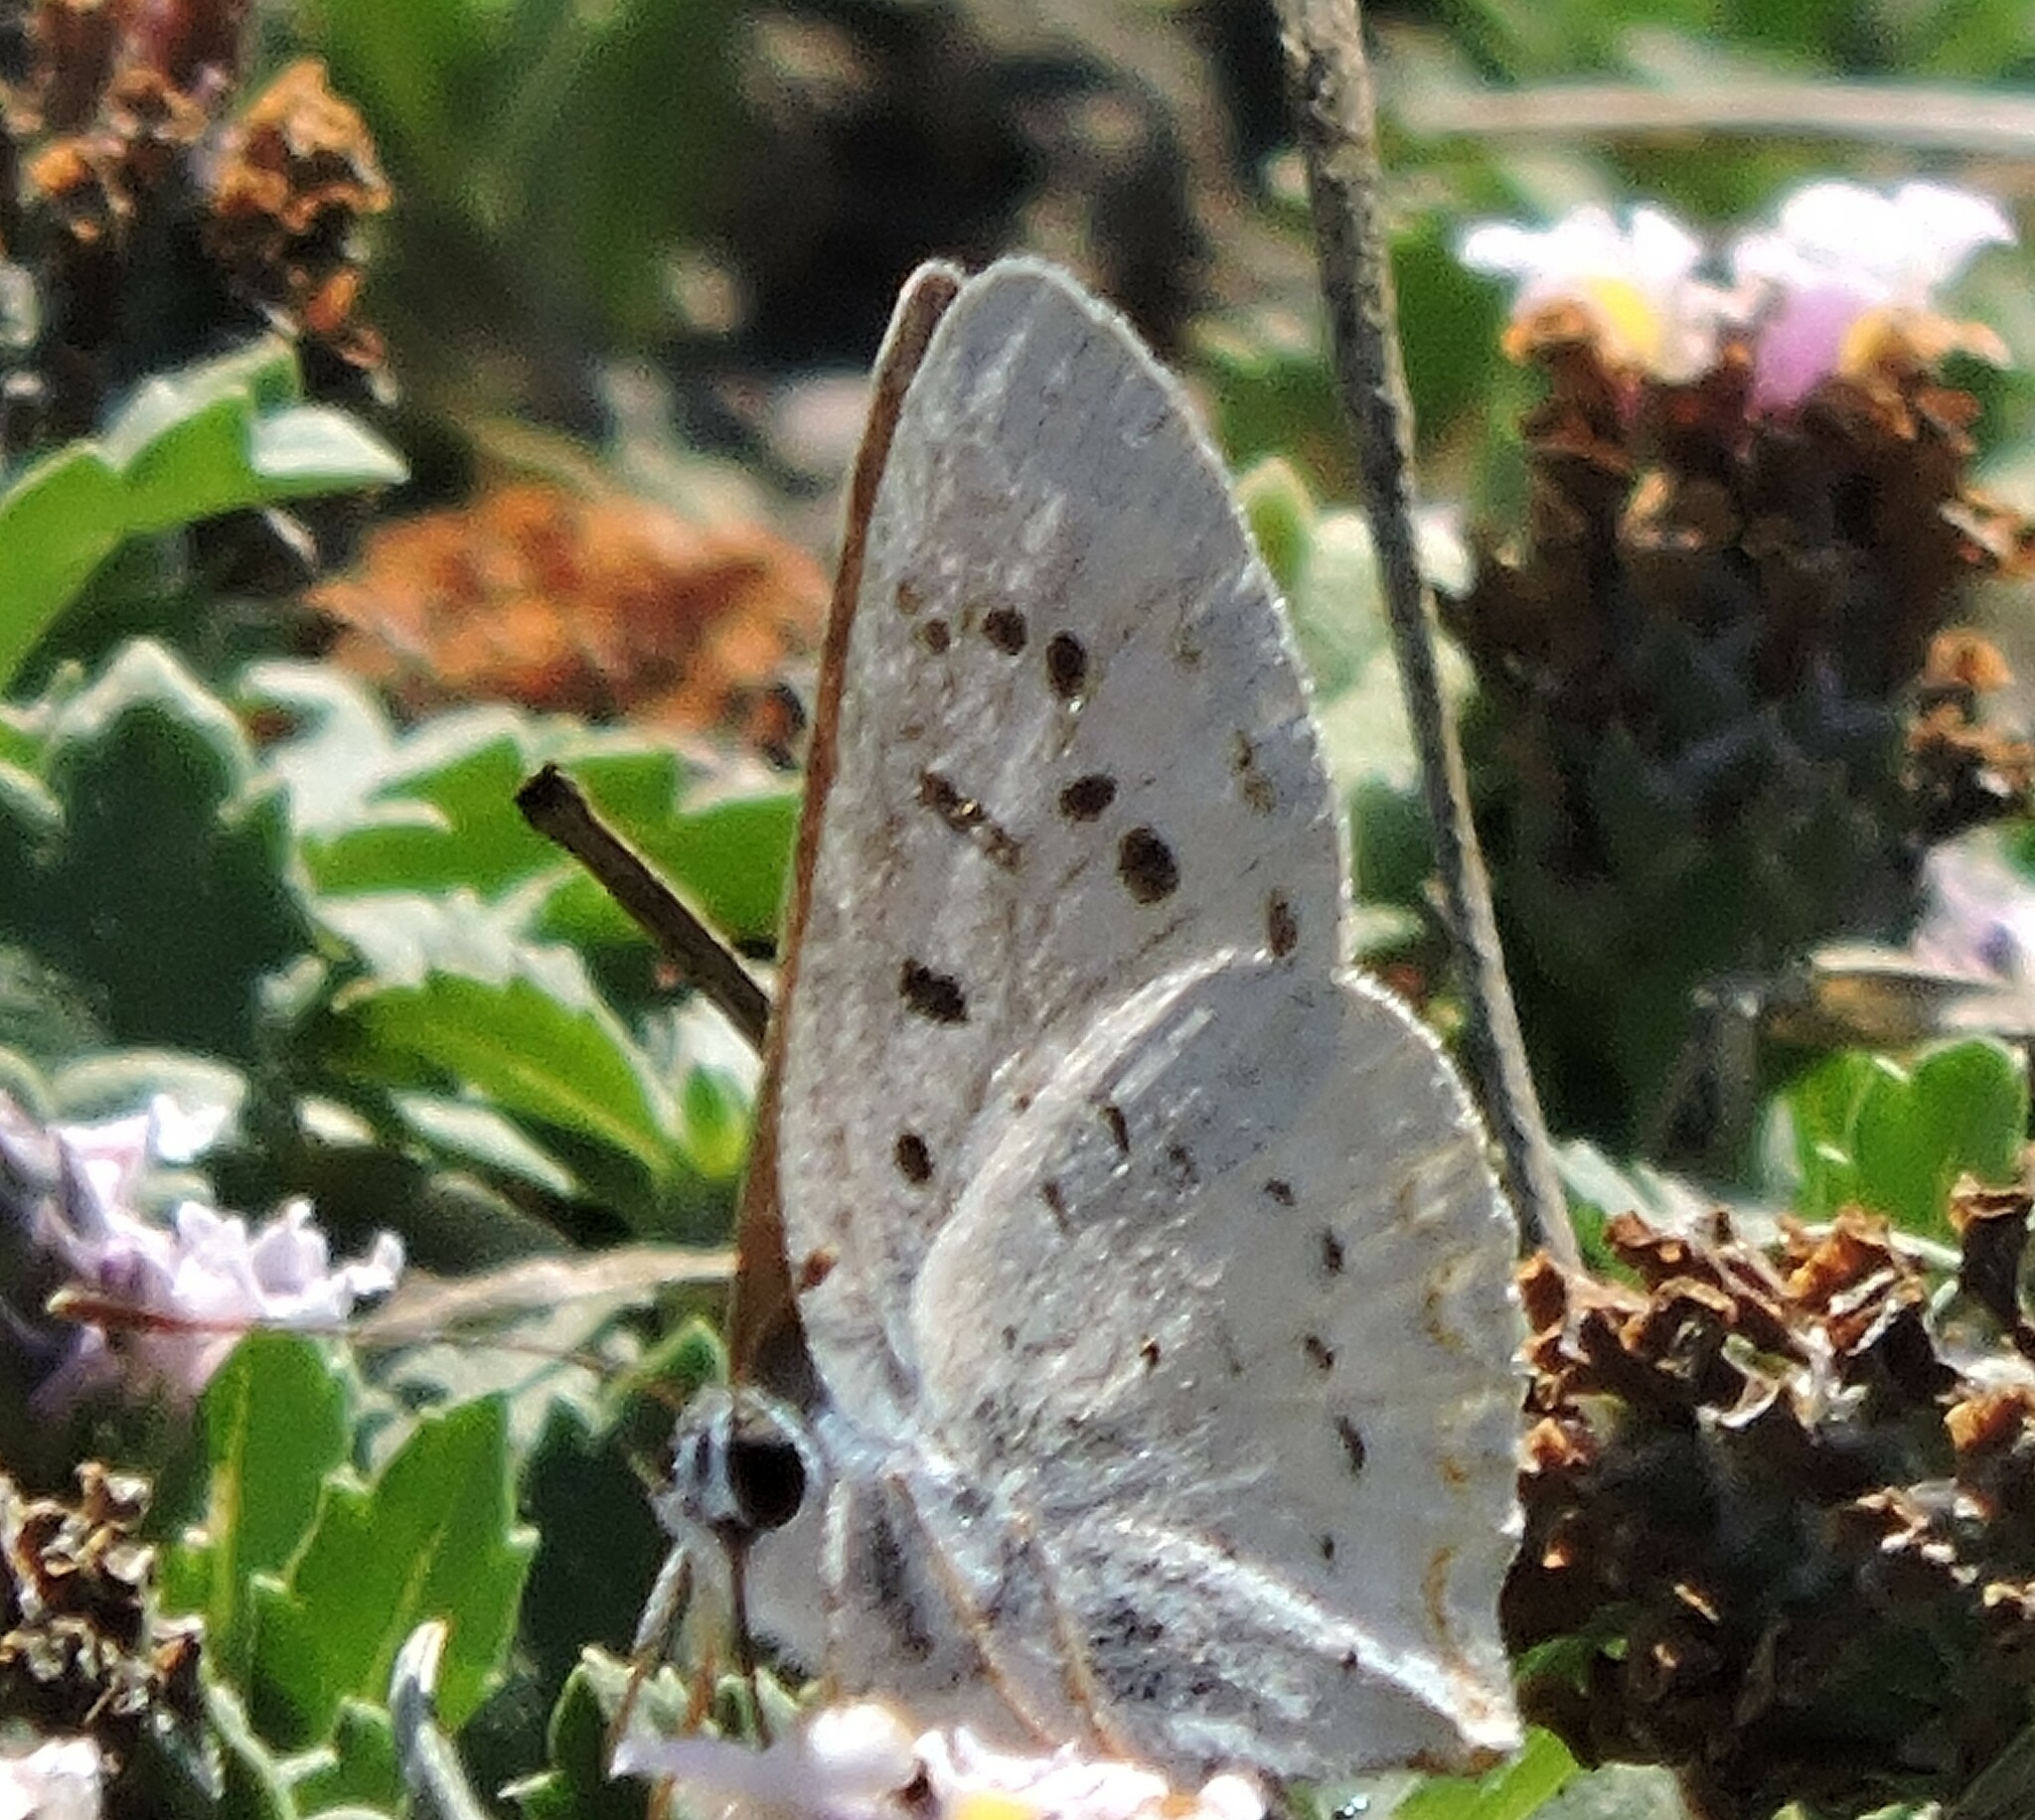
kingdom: Animalia
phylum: Arthropoda
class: Insecta
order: Lepidoptera
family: Lycaenidae
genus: Tharsalea
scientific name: Tharsalea helloides
